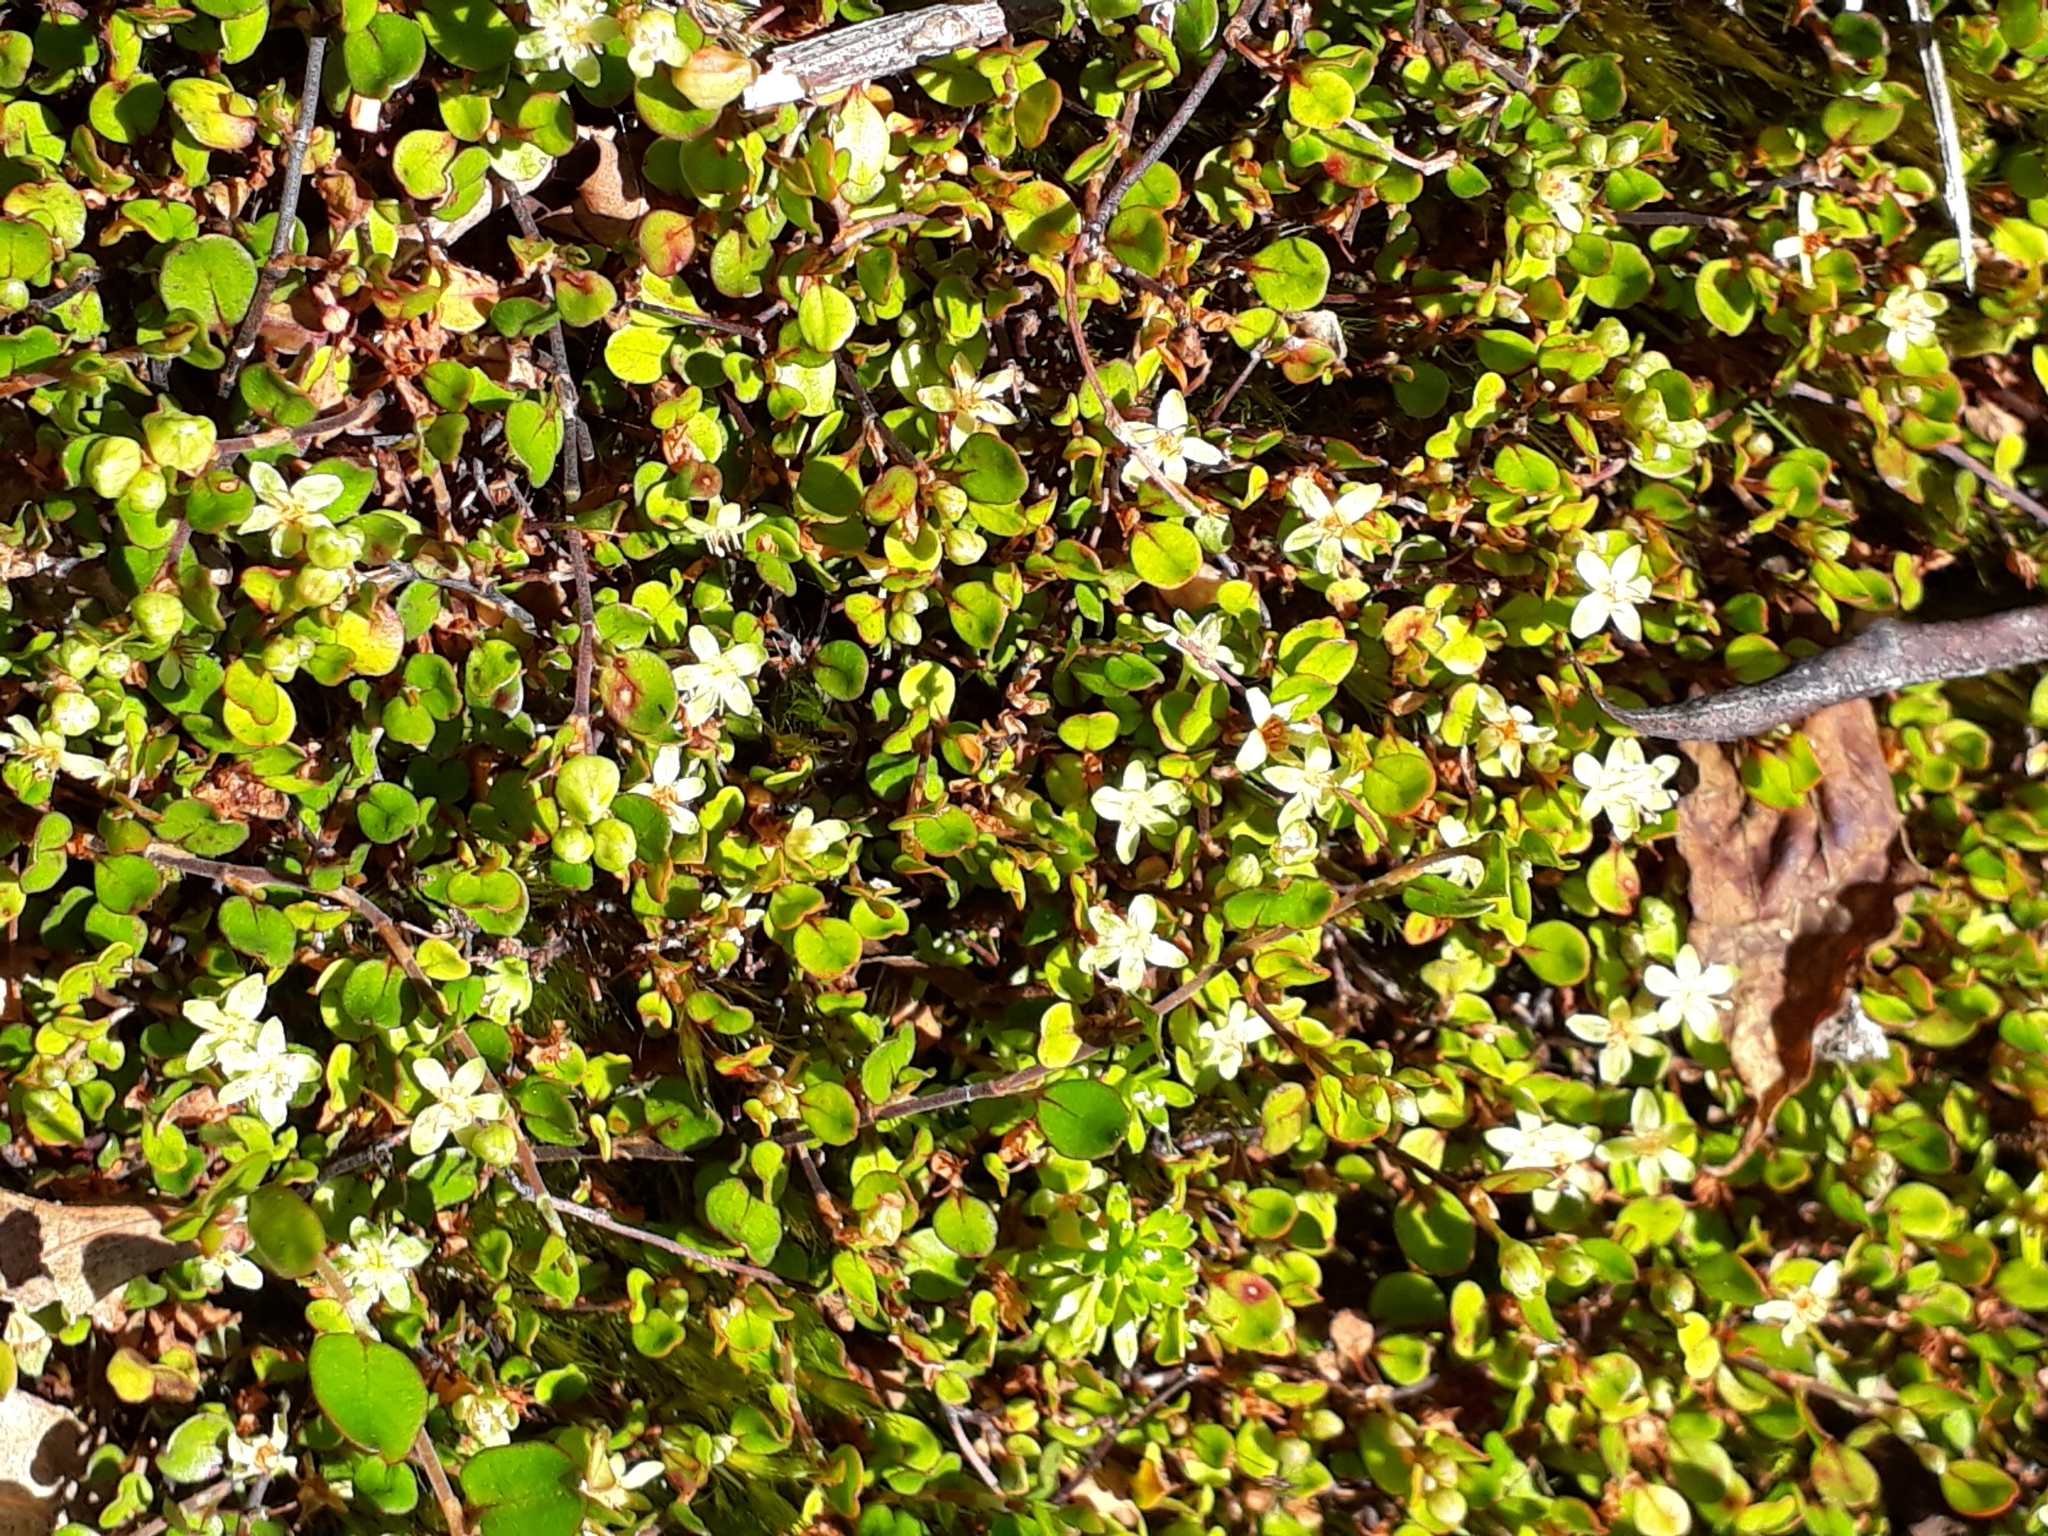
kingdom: Plantae
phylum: Tracheophyta
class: Magnoliopsida
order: Caryophyllales
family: Polygonaceae
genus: Muehlenbeckia
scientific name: Muehlenbeckia axillaris
